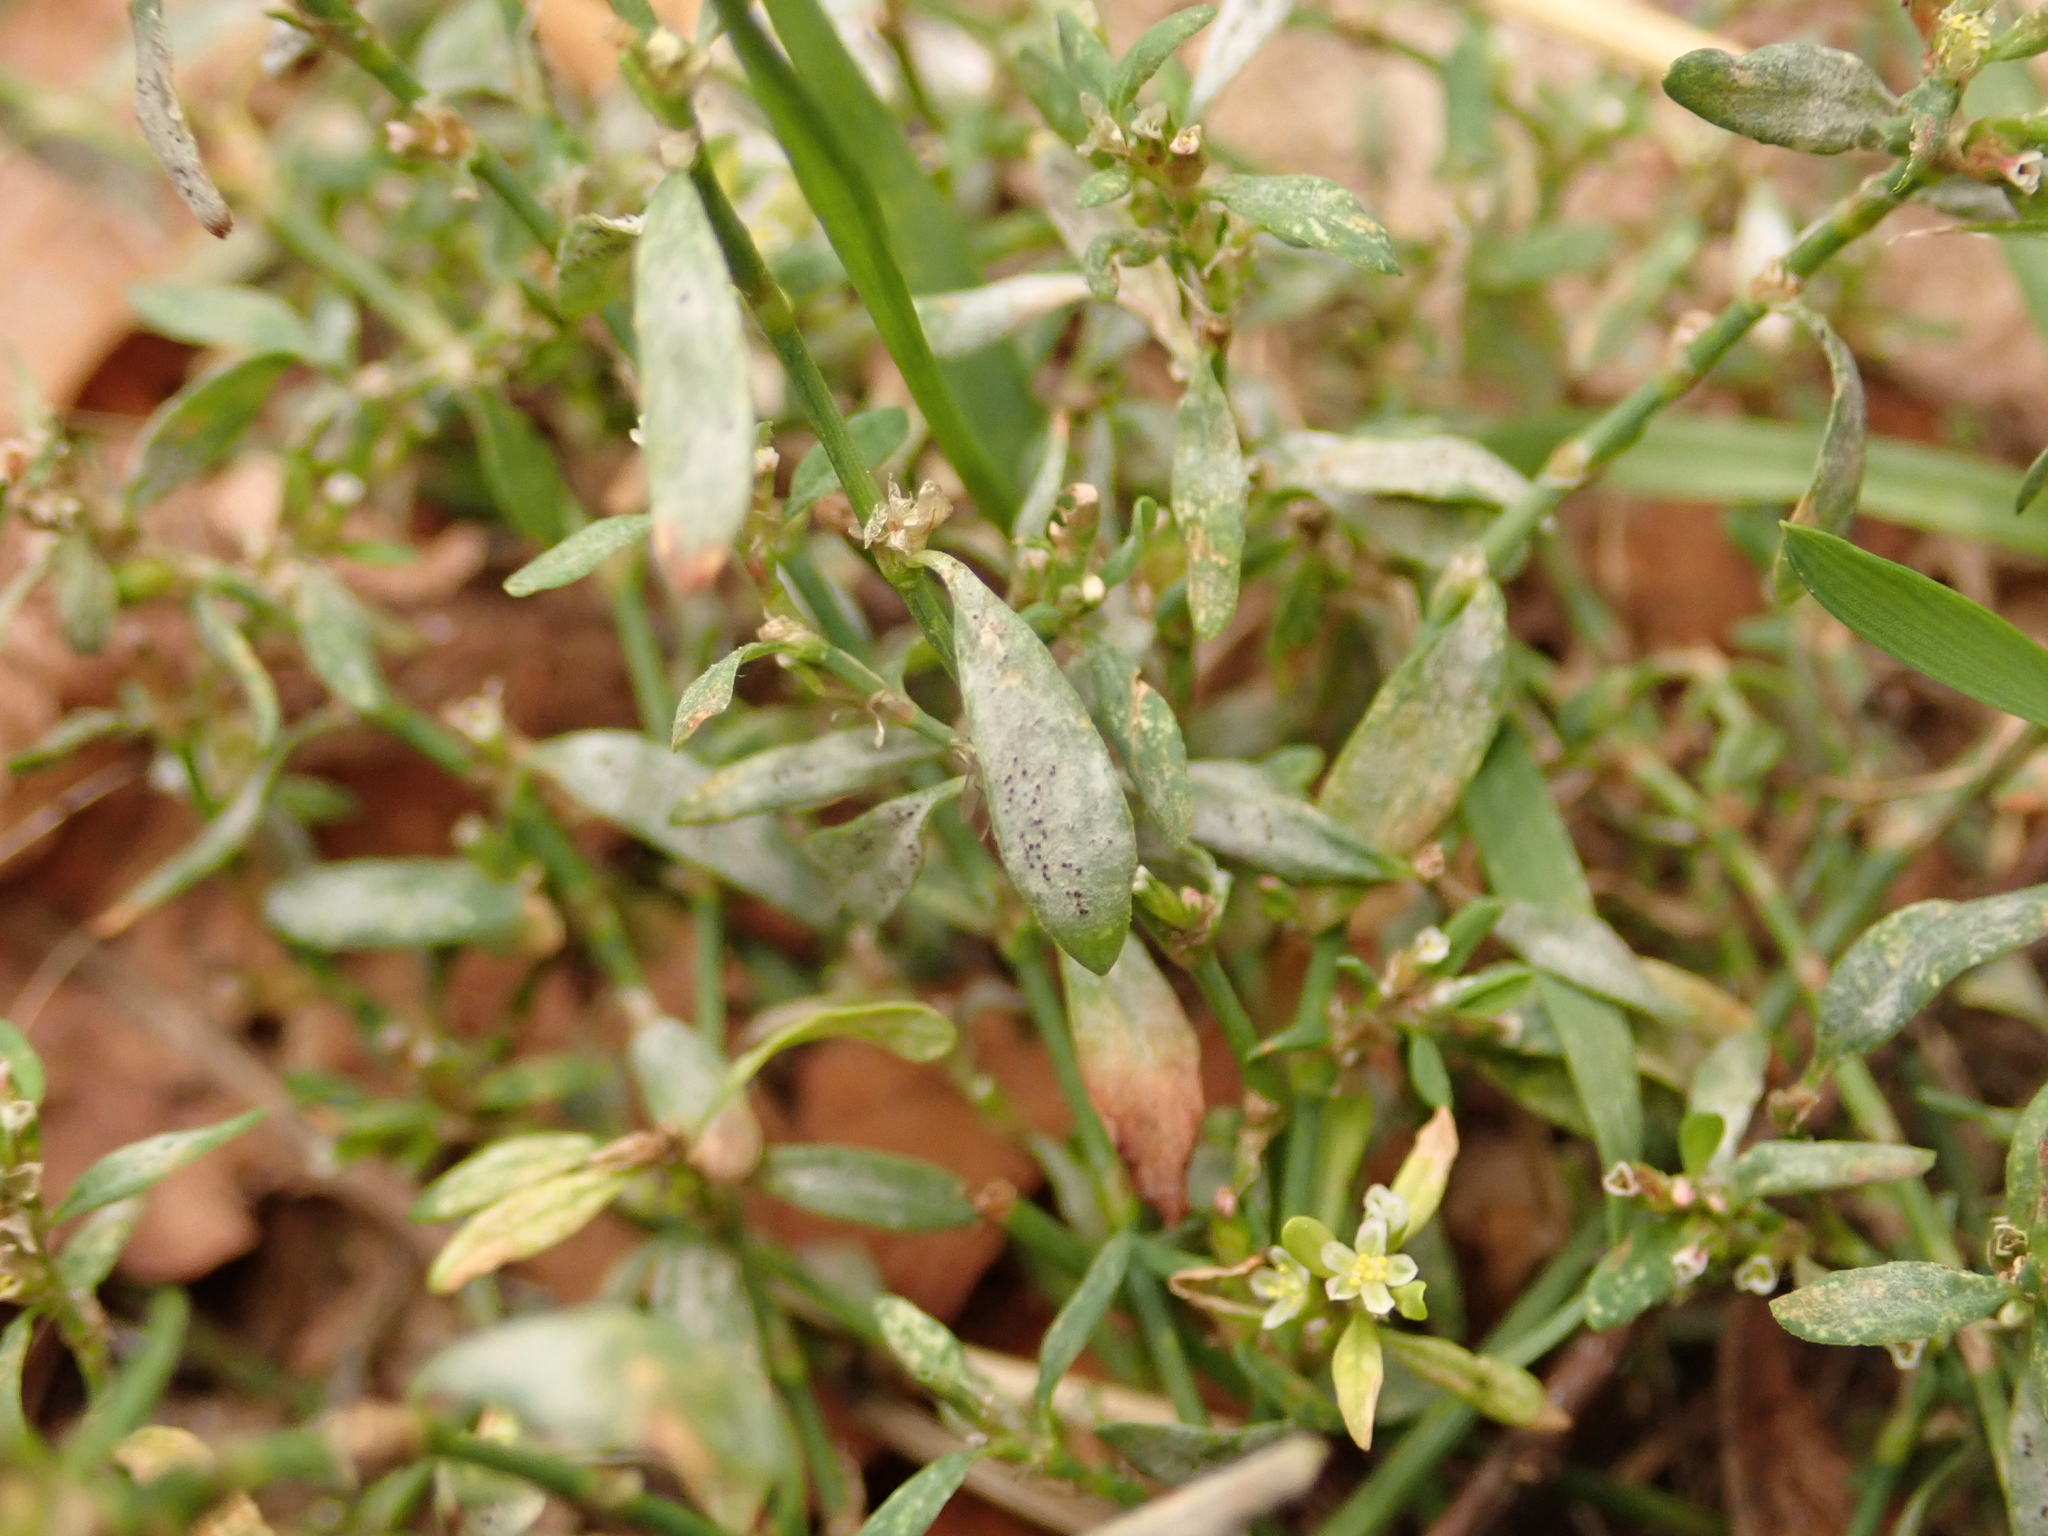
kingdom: Fungi
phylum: Ascomycota
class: Leotiomycetes
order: Helotiales
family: Erysiphaceae
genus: Erysiphe
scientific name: Erysiphe polygoni
